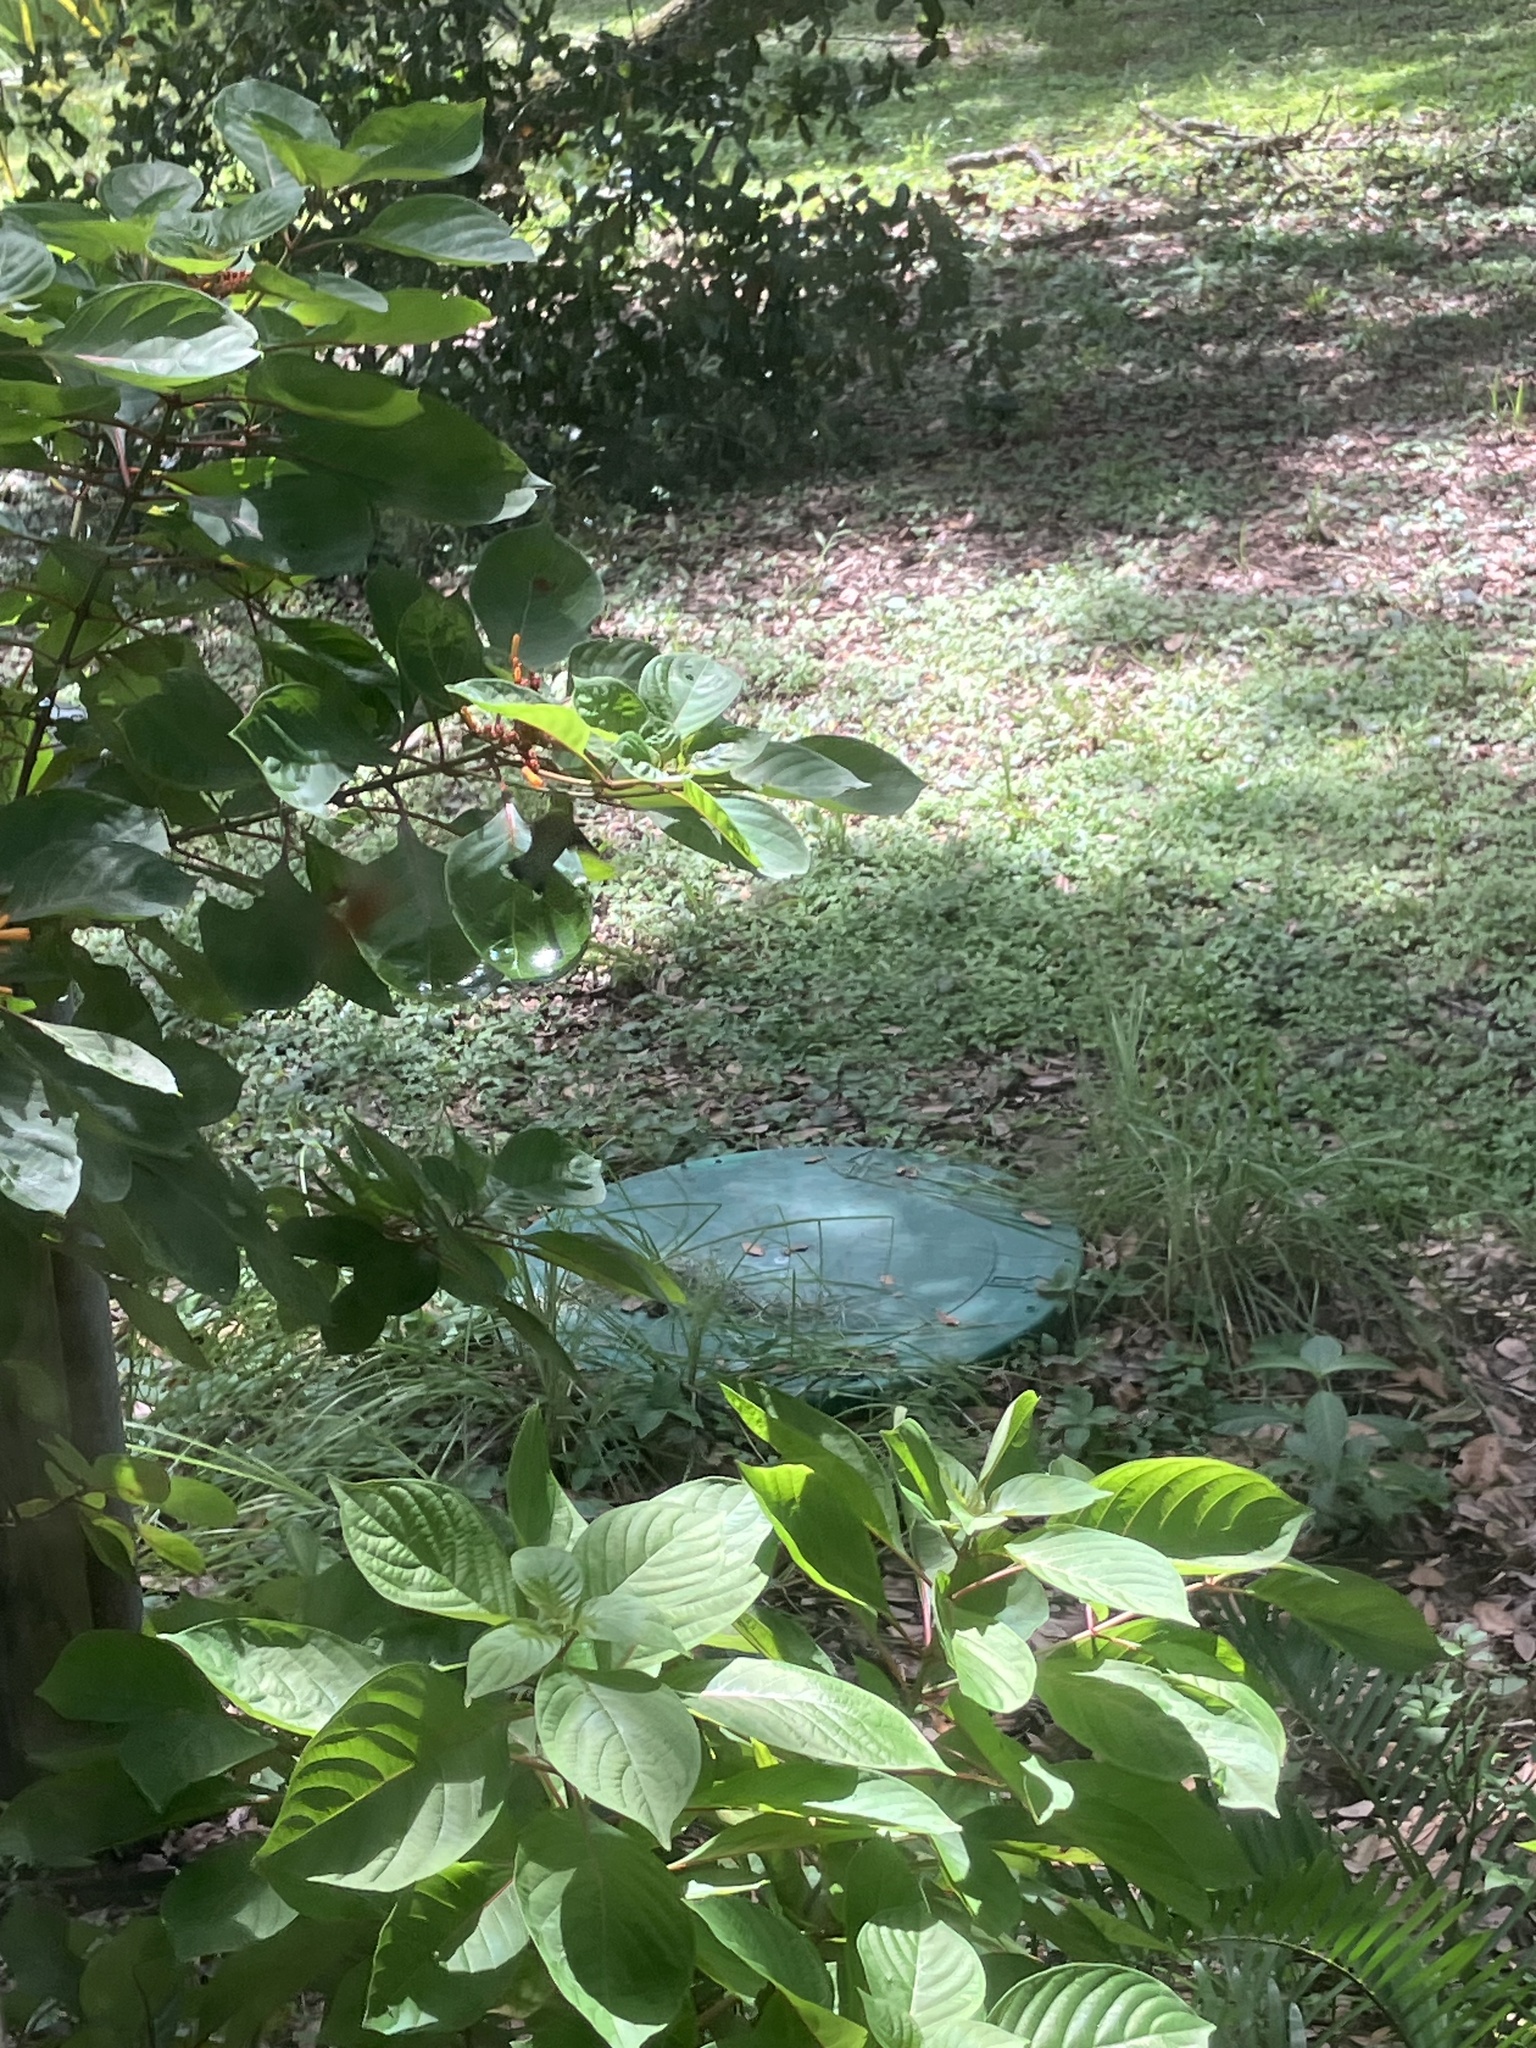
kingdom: Animalia
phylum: Chordata
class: Aves
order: Apodiformes
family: Trochilidae
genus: Archilochus
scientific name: Archilochus colubris
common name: Ruby-throated hummingbird
